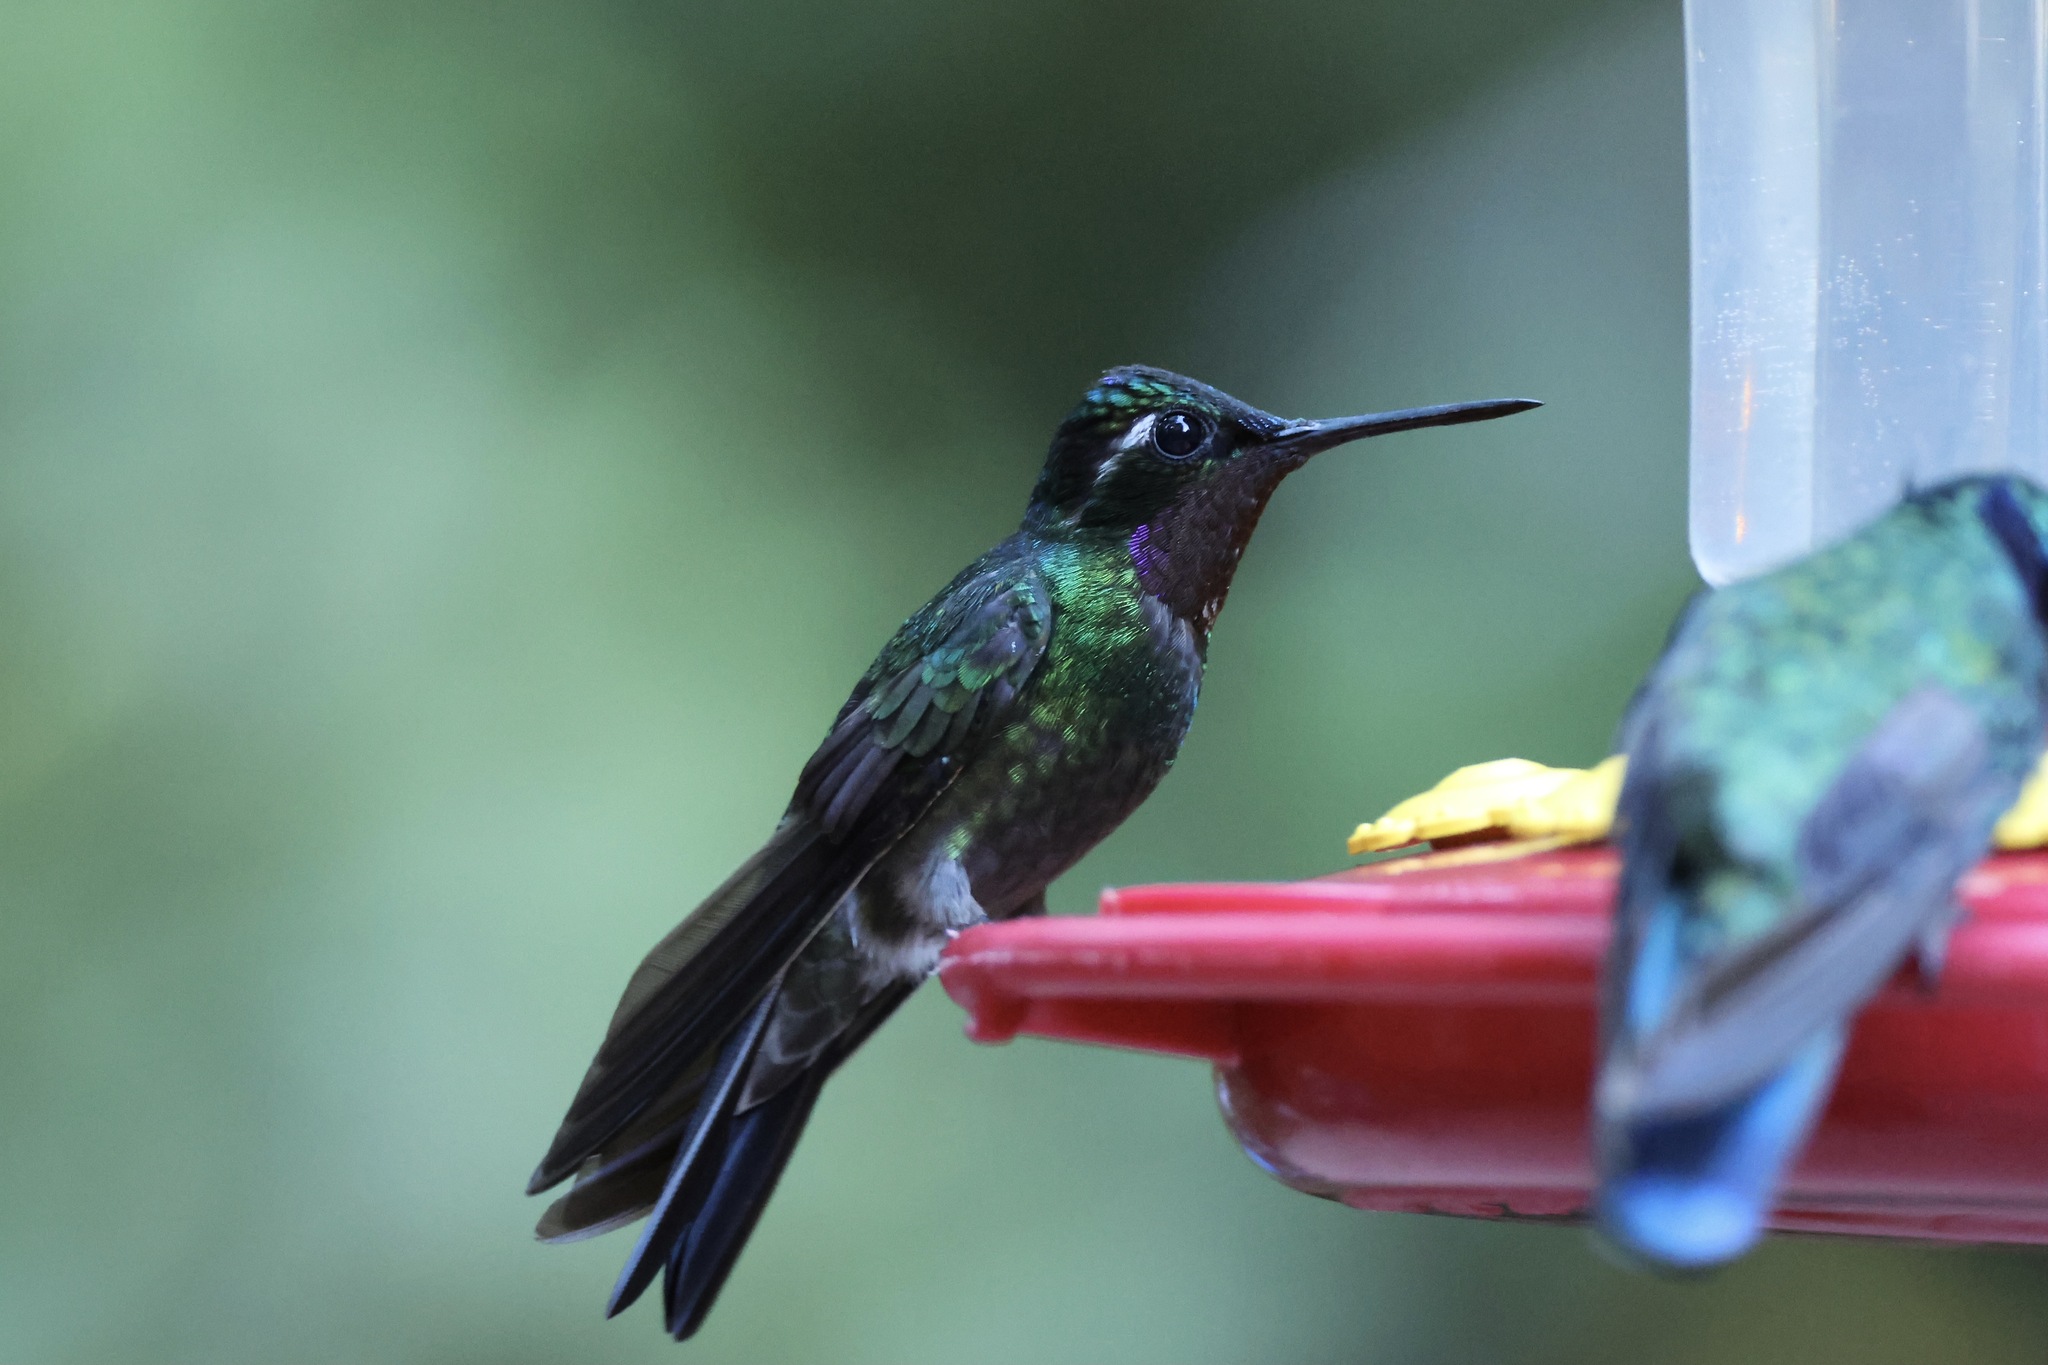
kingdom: Animalia
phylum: Chordata
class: Aves
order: Apodiformes
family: Trochilidae
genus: Lampornis
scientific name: Lampornis calolaemus
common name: Purple-throated mountain-gem
